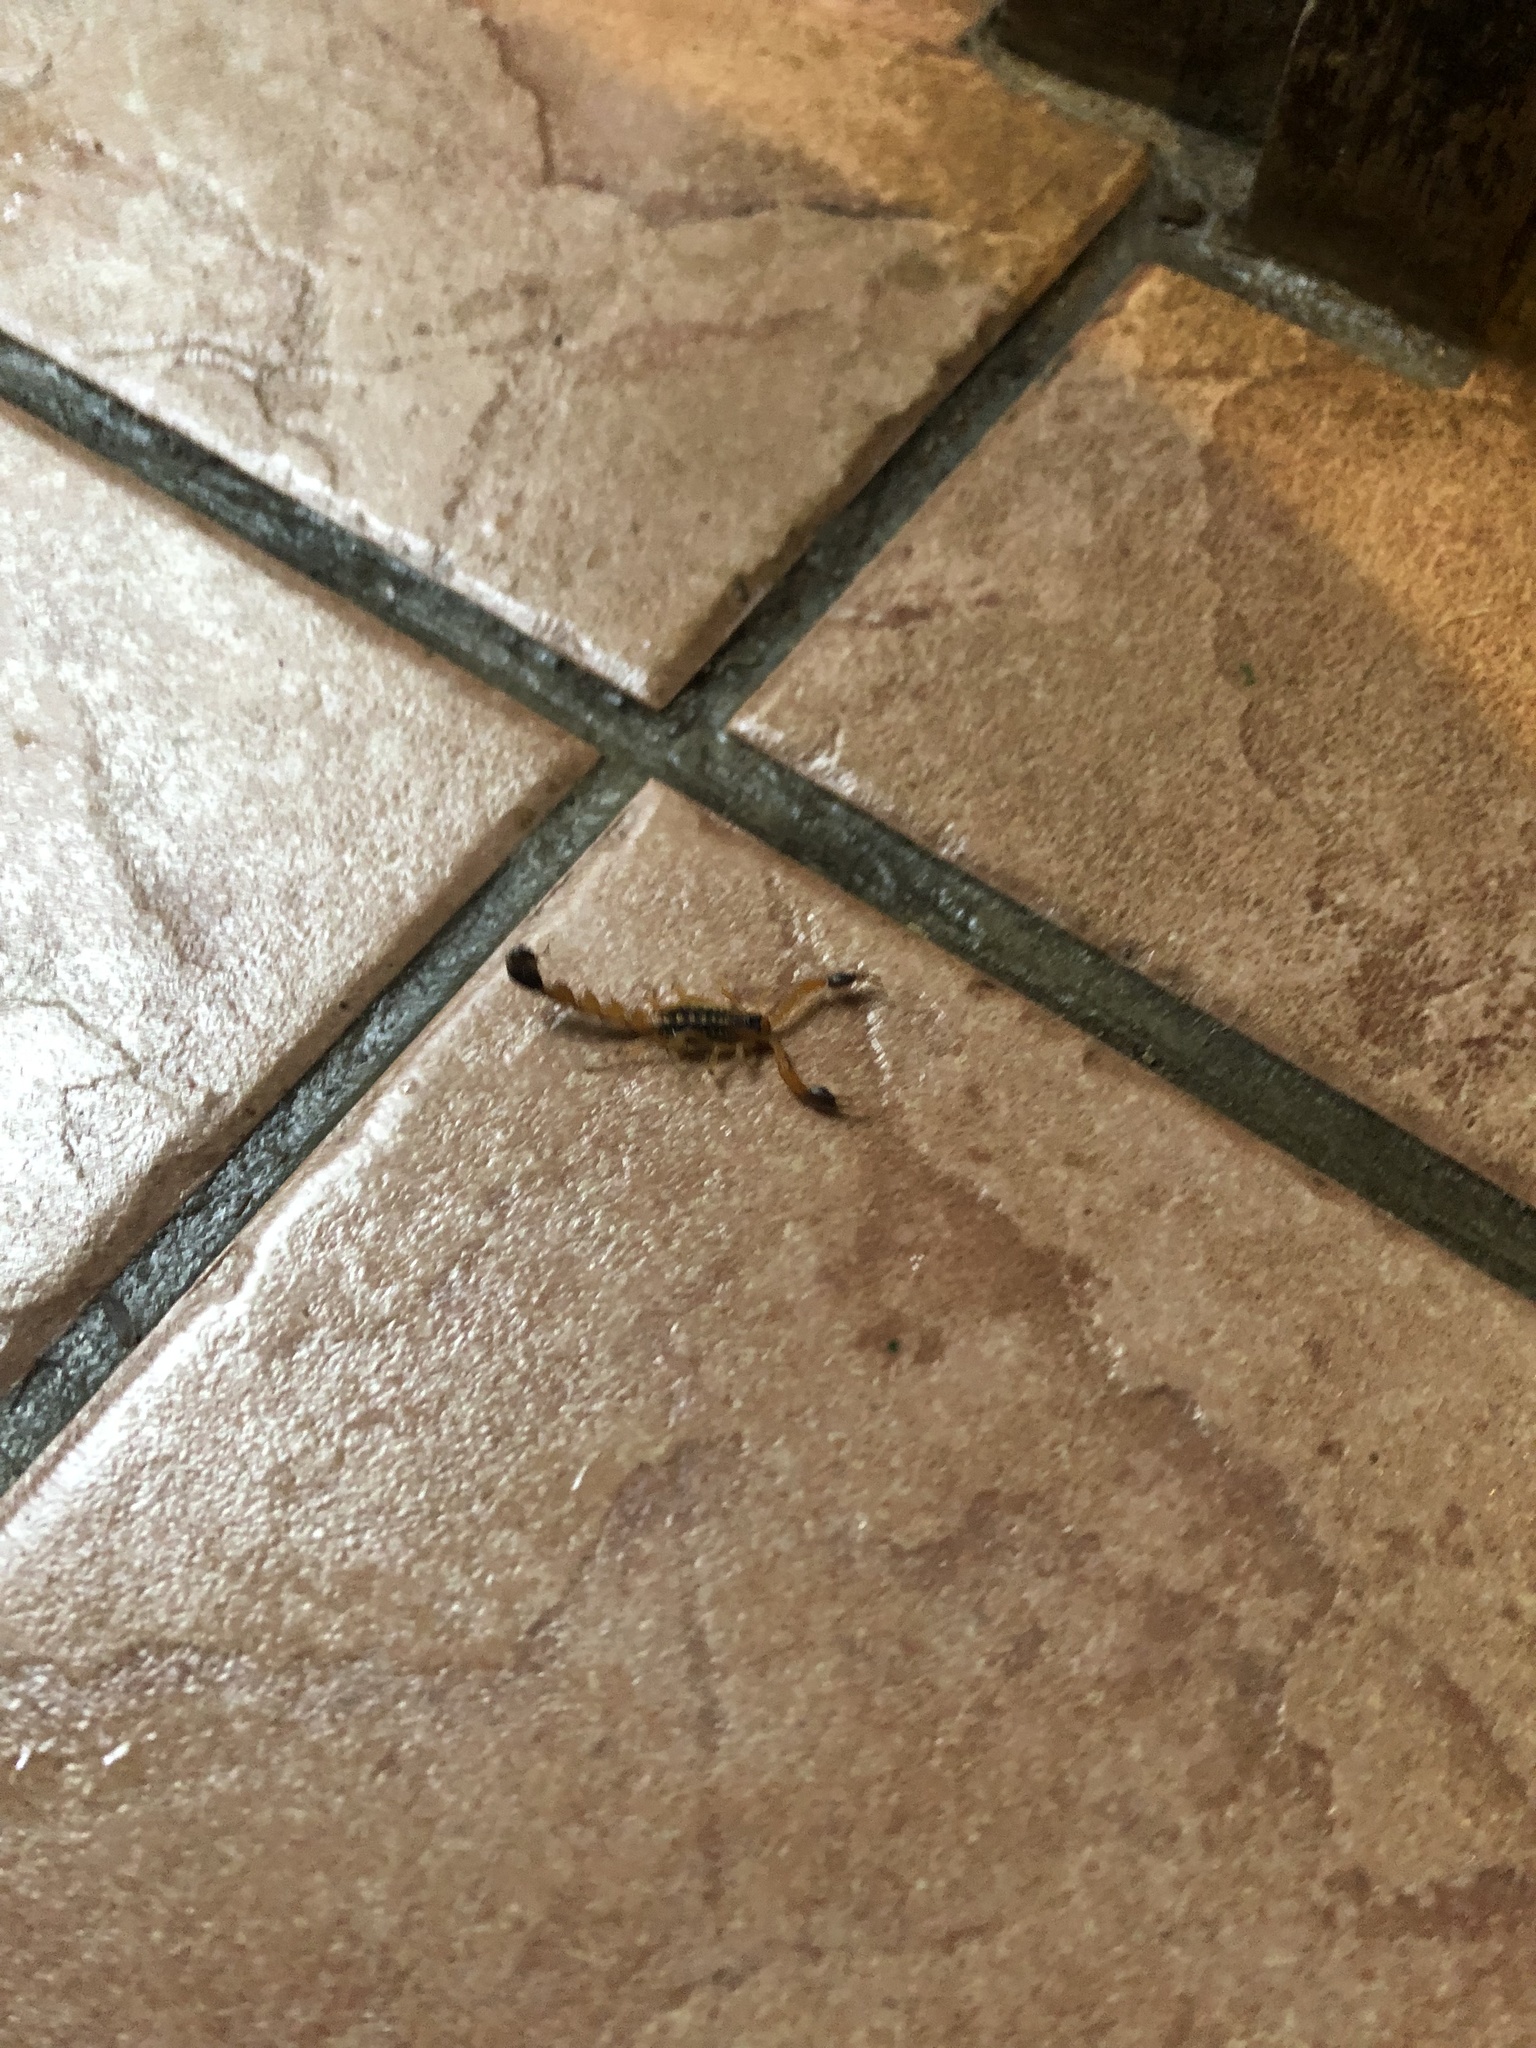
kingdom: Animalia
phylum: Arthropoda
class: Arachnida
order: Scorpiones
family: Buthidae
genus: Uroplectes
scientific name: Uroplectes formosus
